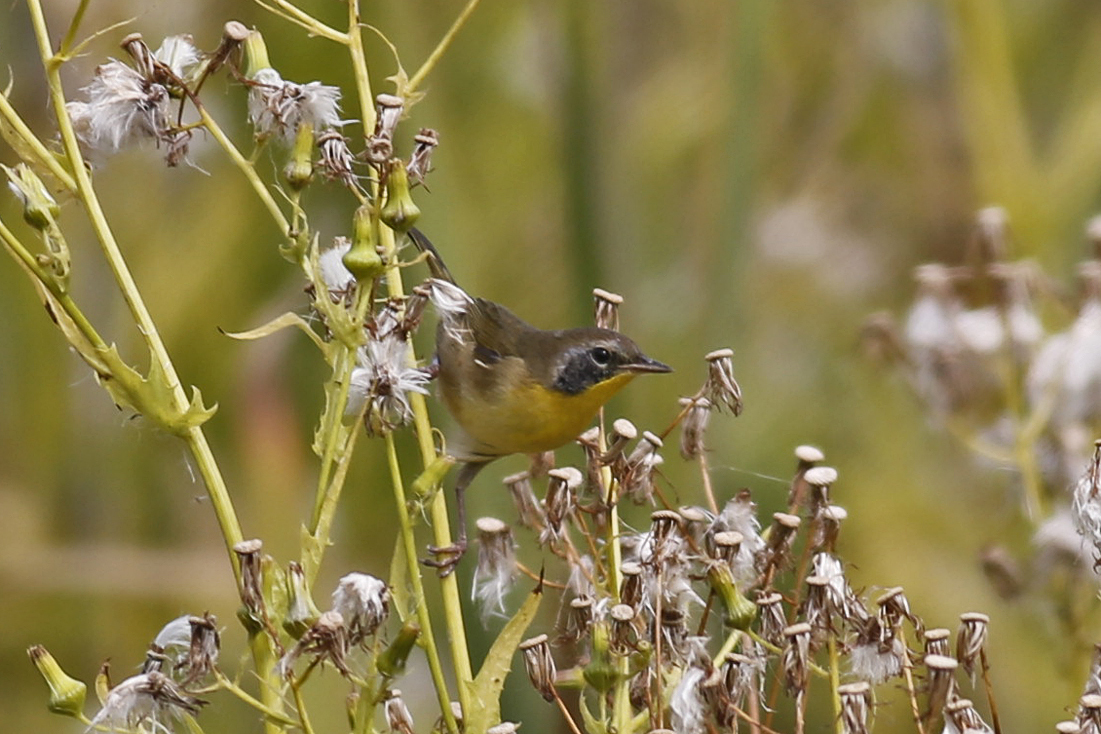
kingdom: Animalia
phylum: Chordata
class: Aves
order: Passeriformes
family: Parulidae
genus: Geothlypis
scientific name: Geothlypis trichas
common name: Common yellowthroat
